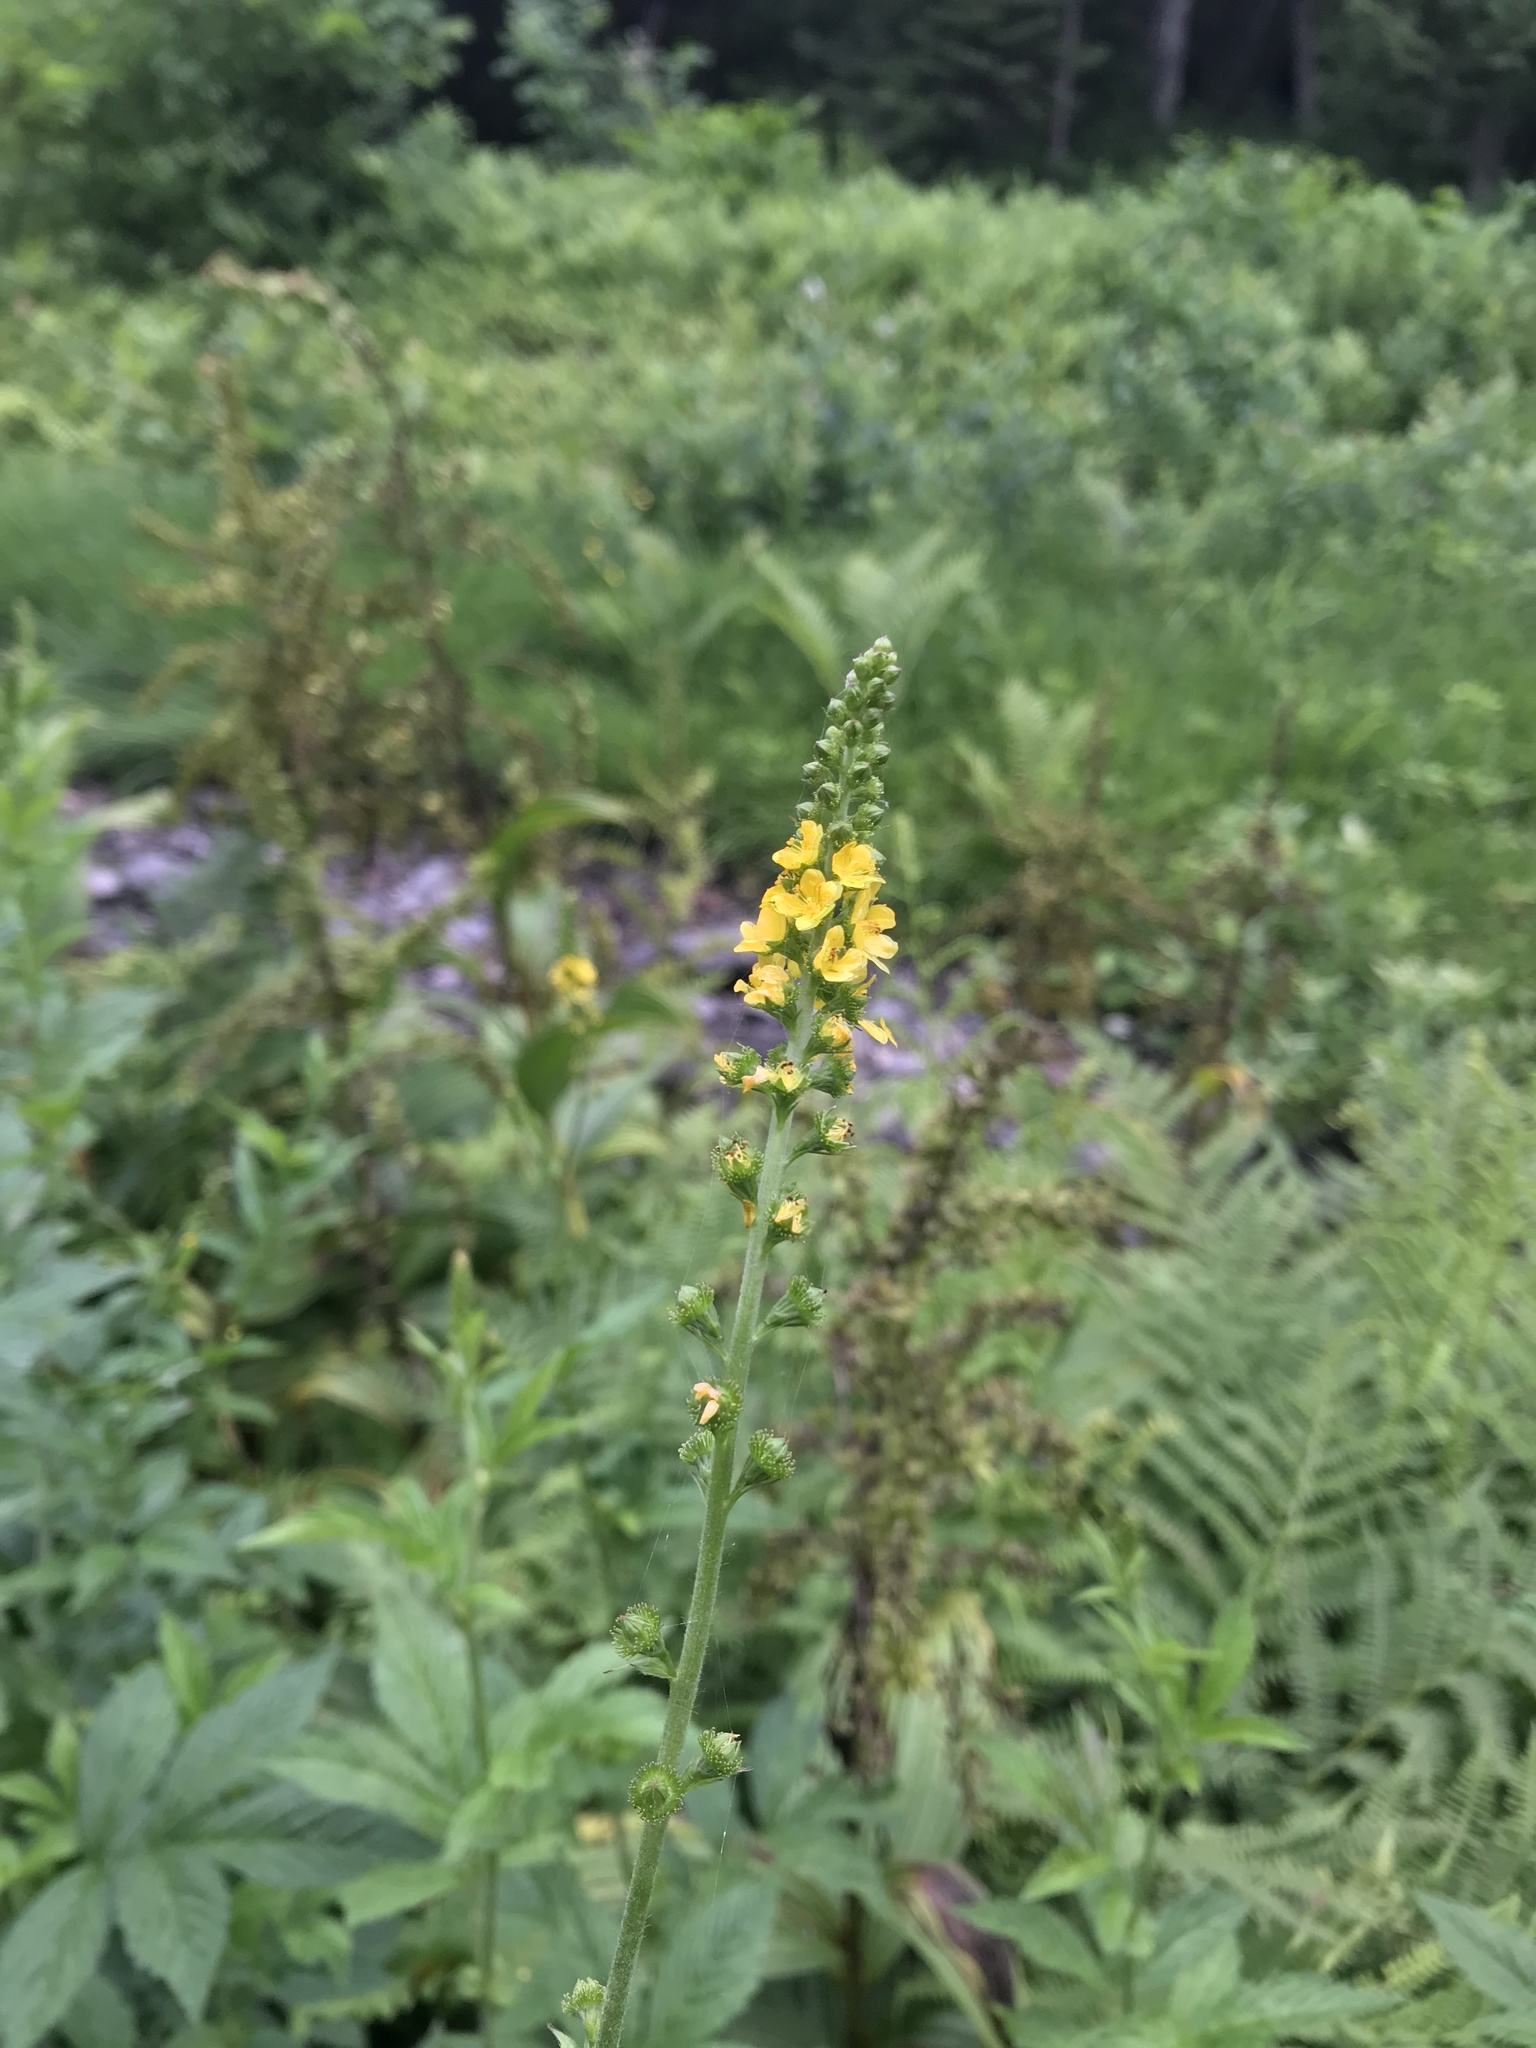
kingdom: Plantae
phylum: Tracheophyta
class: Magnoliopsida
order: Rosales
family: Rosaceae
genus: Agrimonia
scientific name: Agrimonia striata
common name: Britton's agrimony
